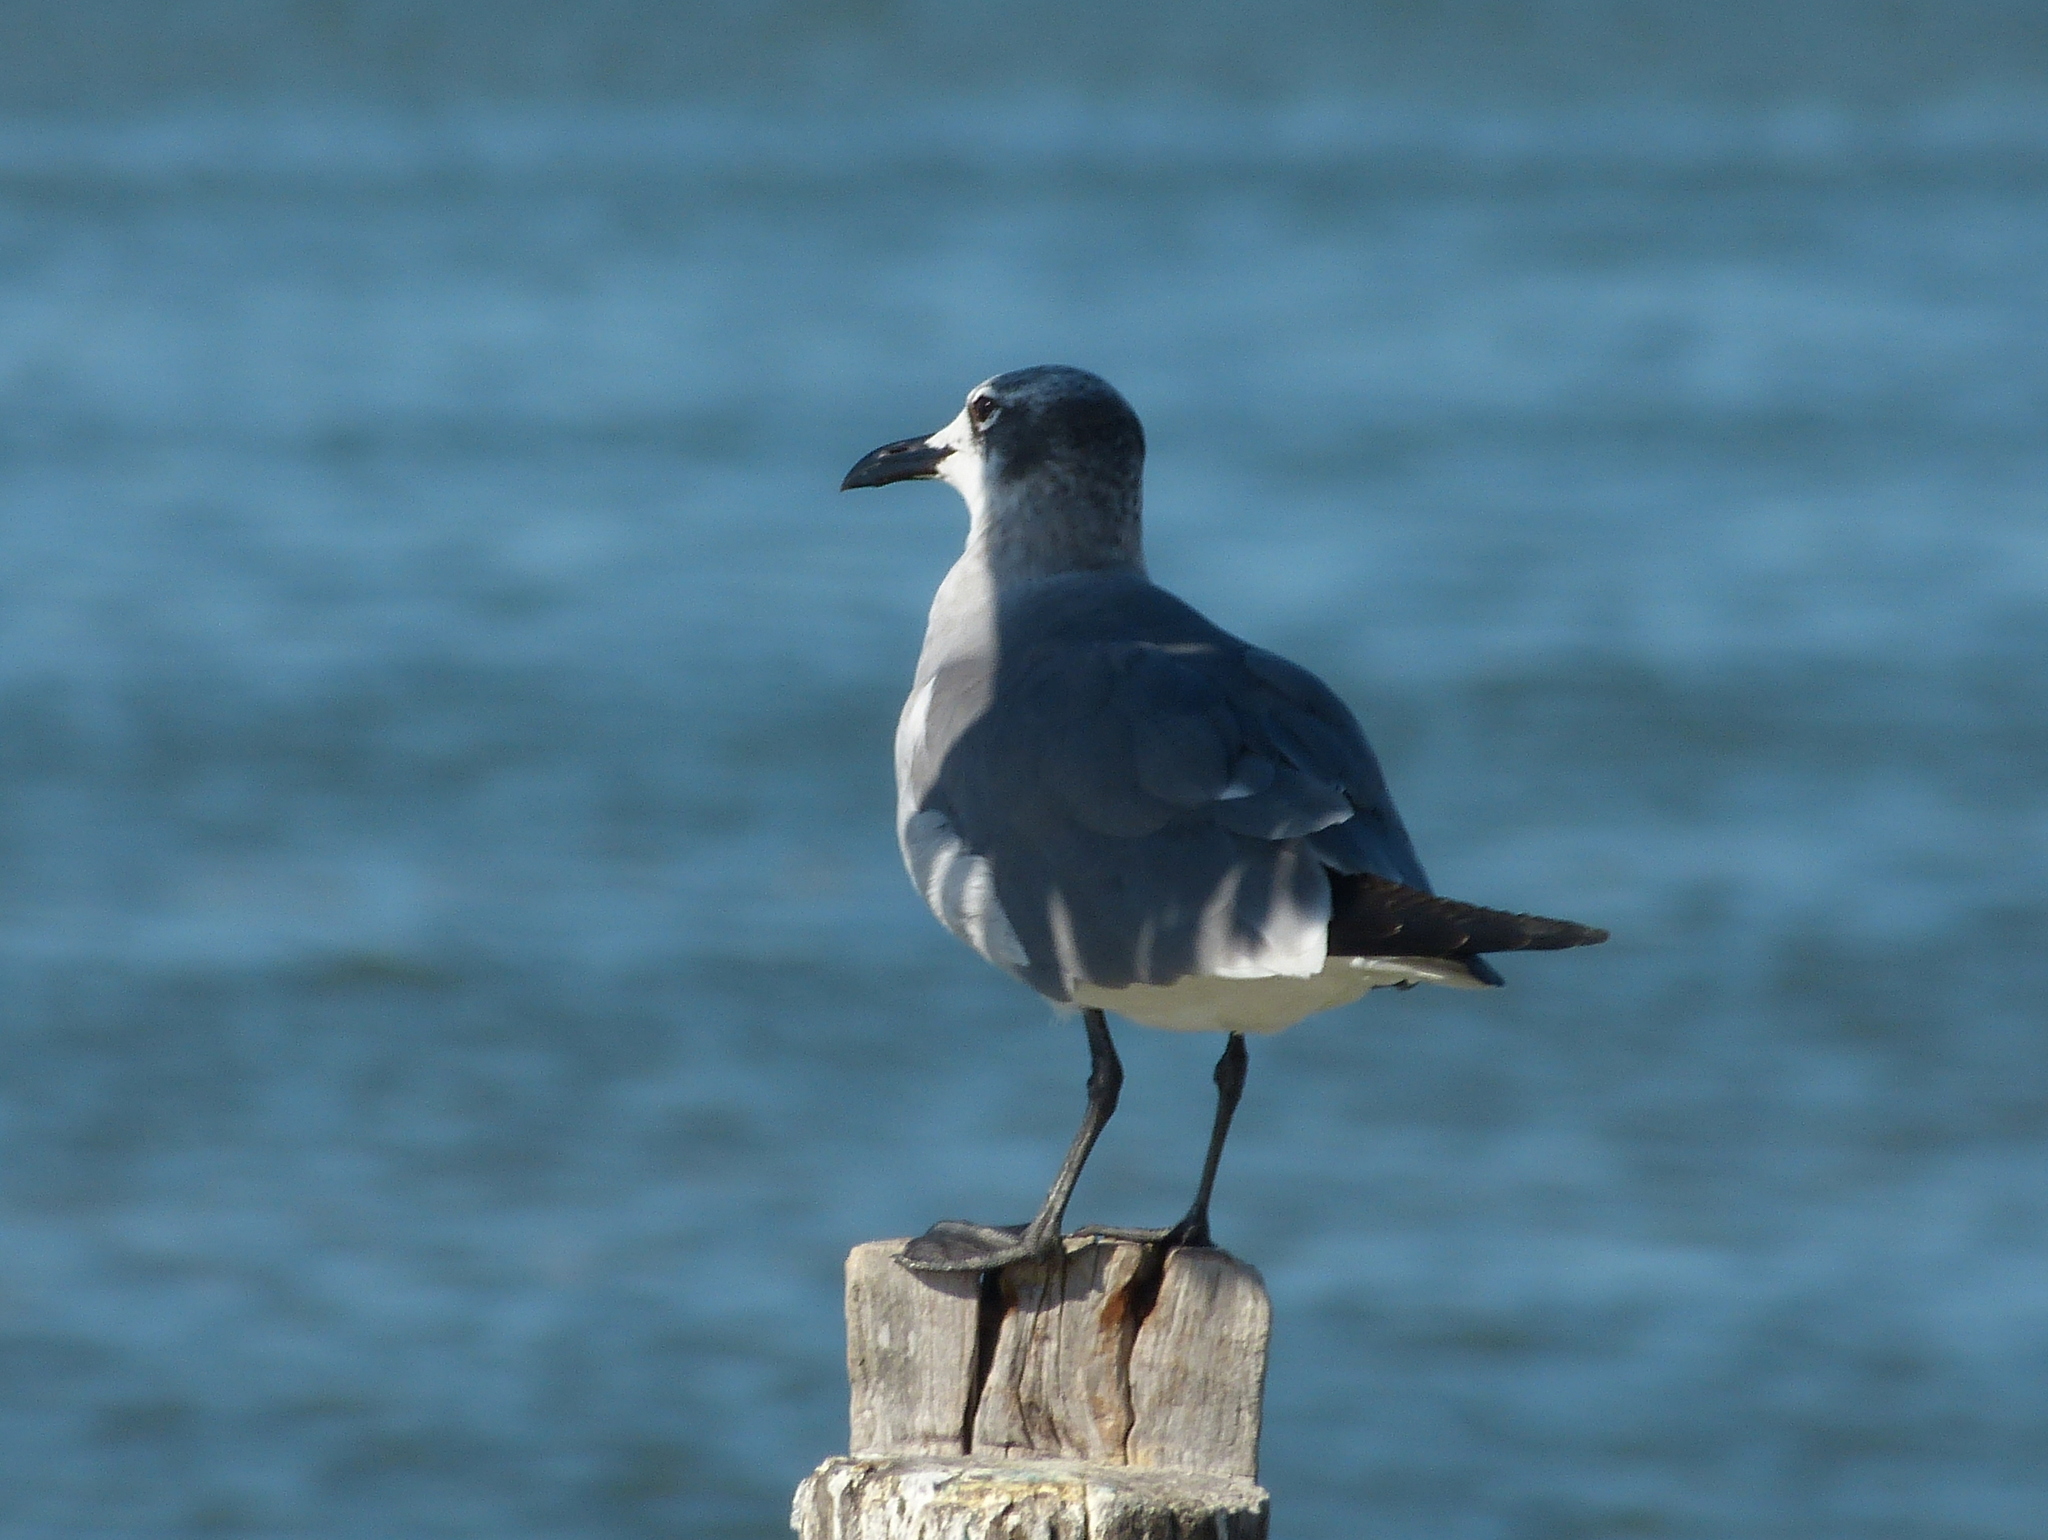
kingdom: Animalia
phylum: Chordata
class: Aves
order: Charadriiformes
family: Laridae
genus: Leucophaeus
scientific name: Leucophaeus atricilla
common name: Laughing gull
